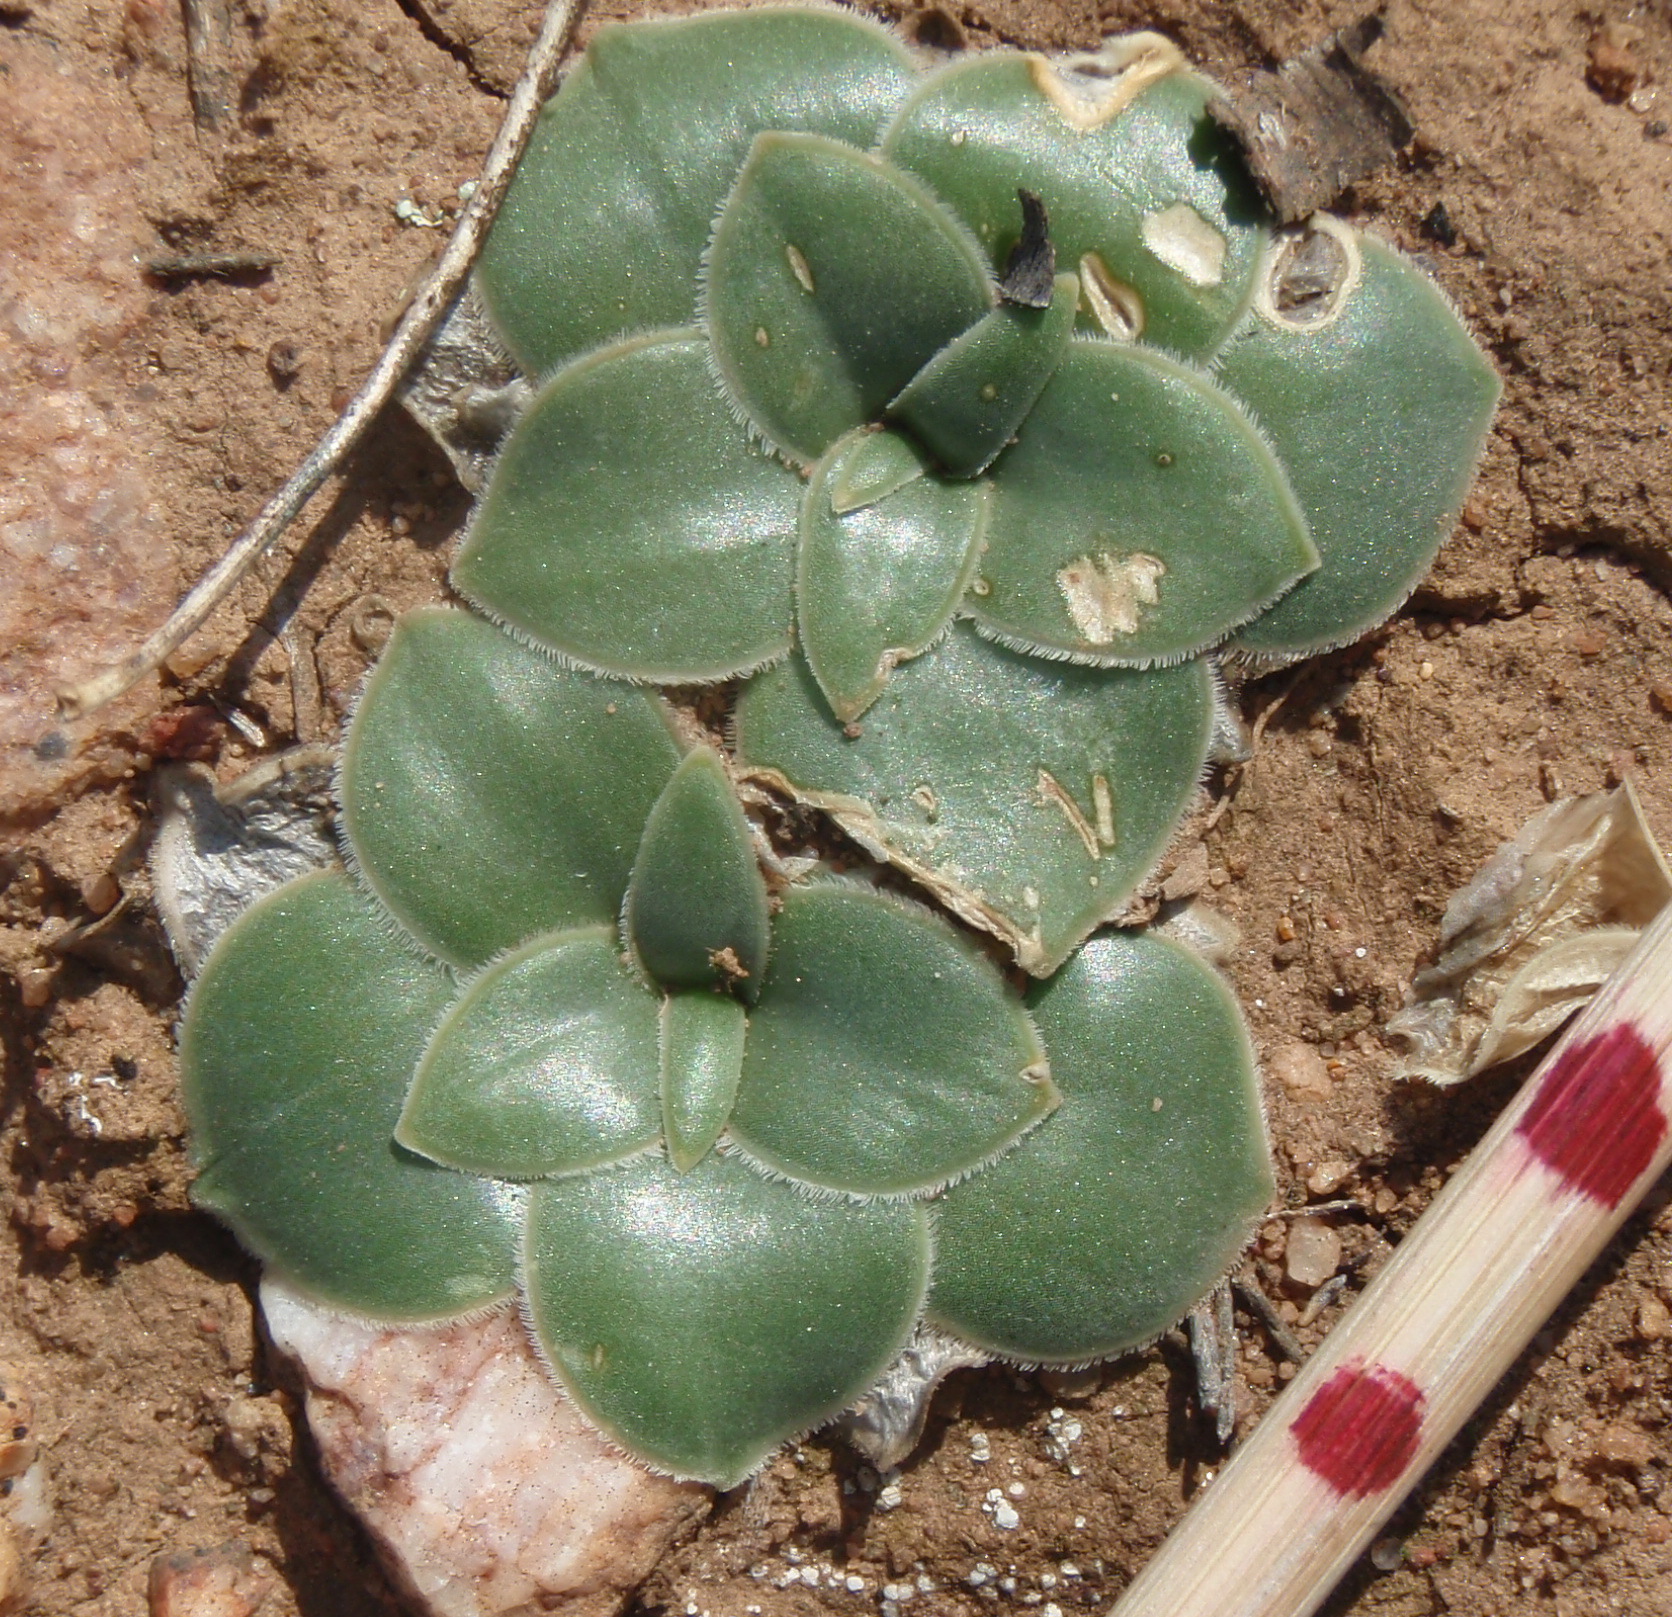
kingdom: Plantae
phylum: Tracheophyta
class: Liliopsida
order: Asparagales
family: Asparagaceae
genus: Drimia
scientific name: Drimia ciliata
